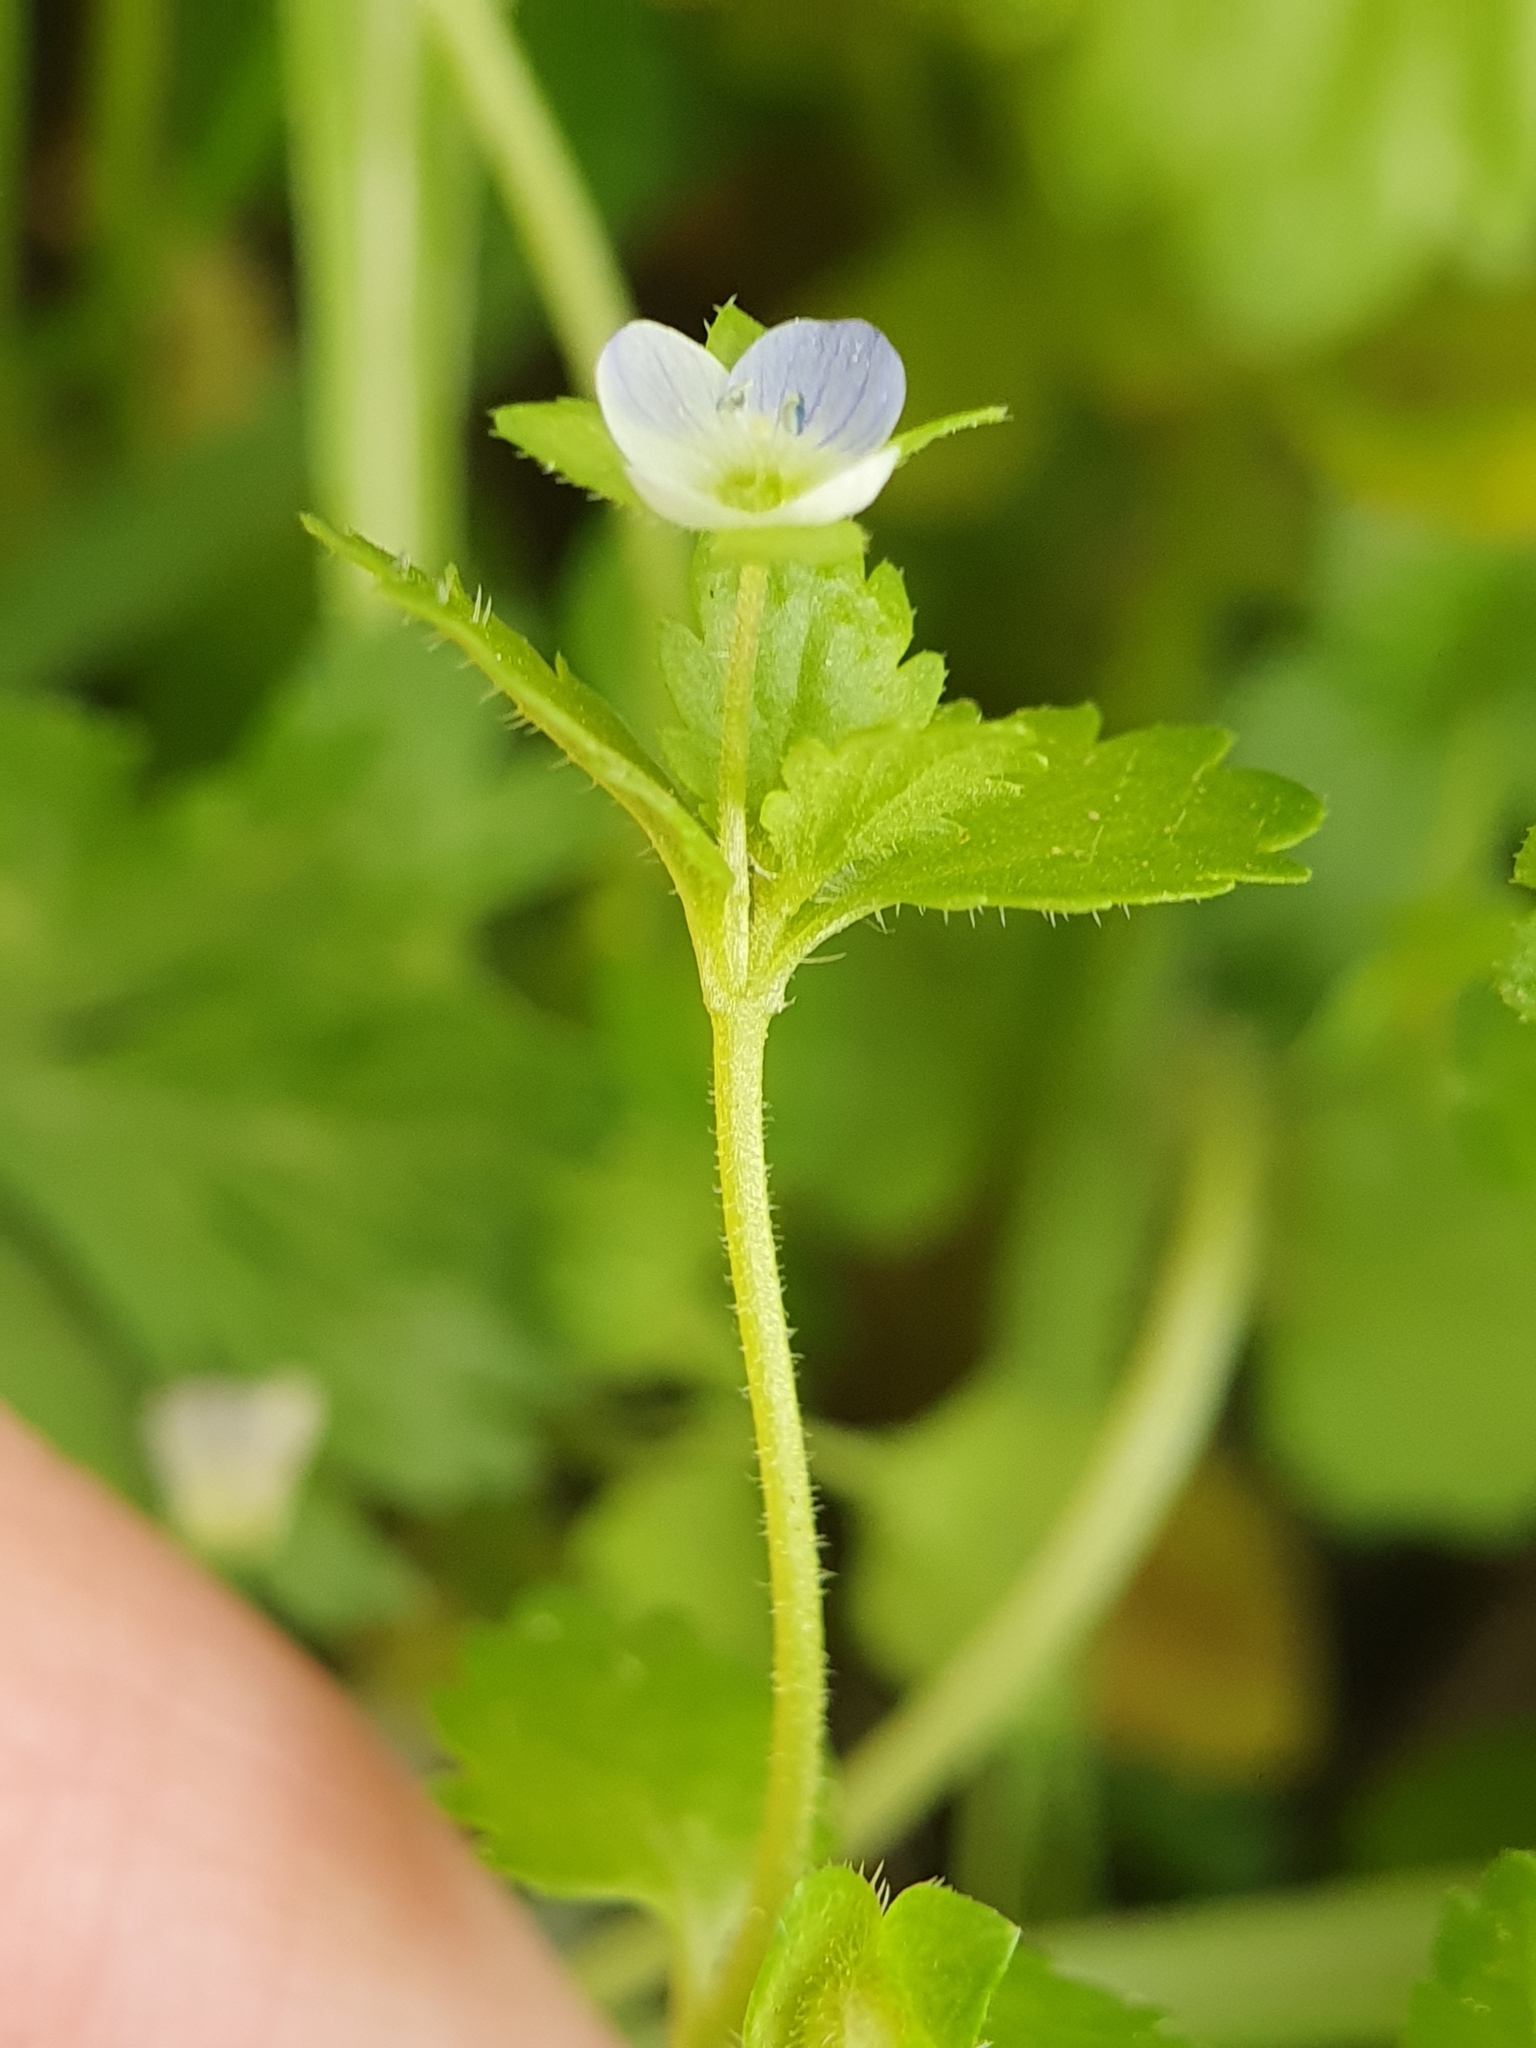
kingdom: Plantae
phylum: Tracheophyta
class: Magnoliopsida
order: Lamiales
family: Plantaginaceae
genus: Veronica
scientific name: Veronica polita
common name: Grey field-speedwell
